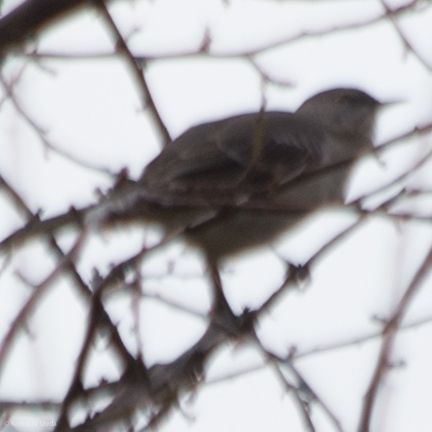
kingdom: Animalia
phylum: Chordata
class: Aves
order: Passeriformes
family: Mimidae
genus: Mimus
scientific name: Mimus polyglottos
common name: Northern mockingbird
